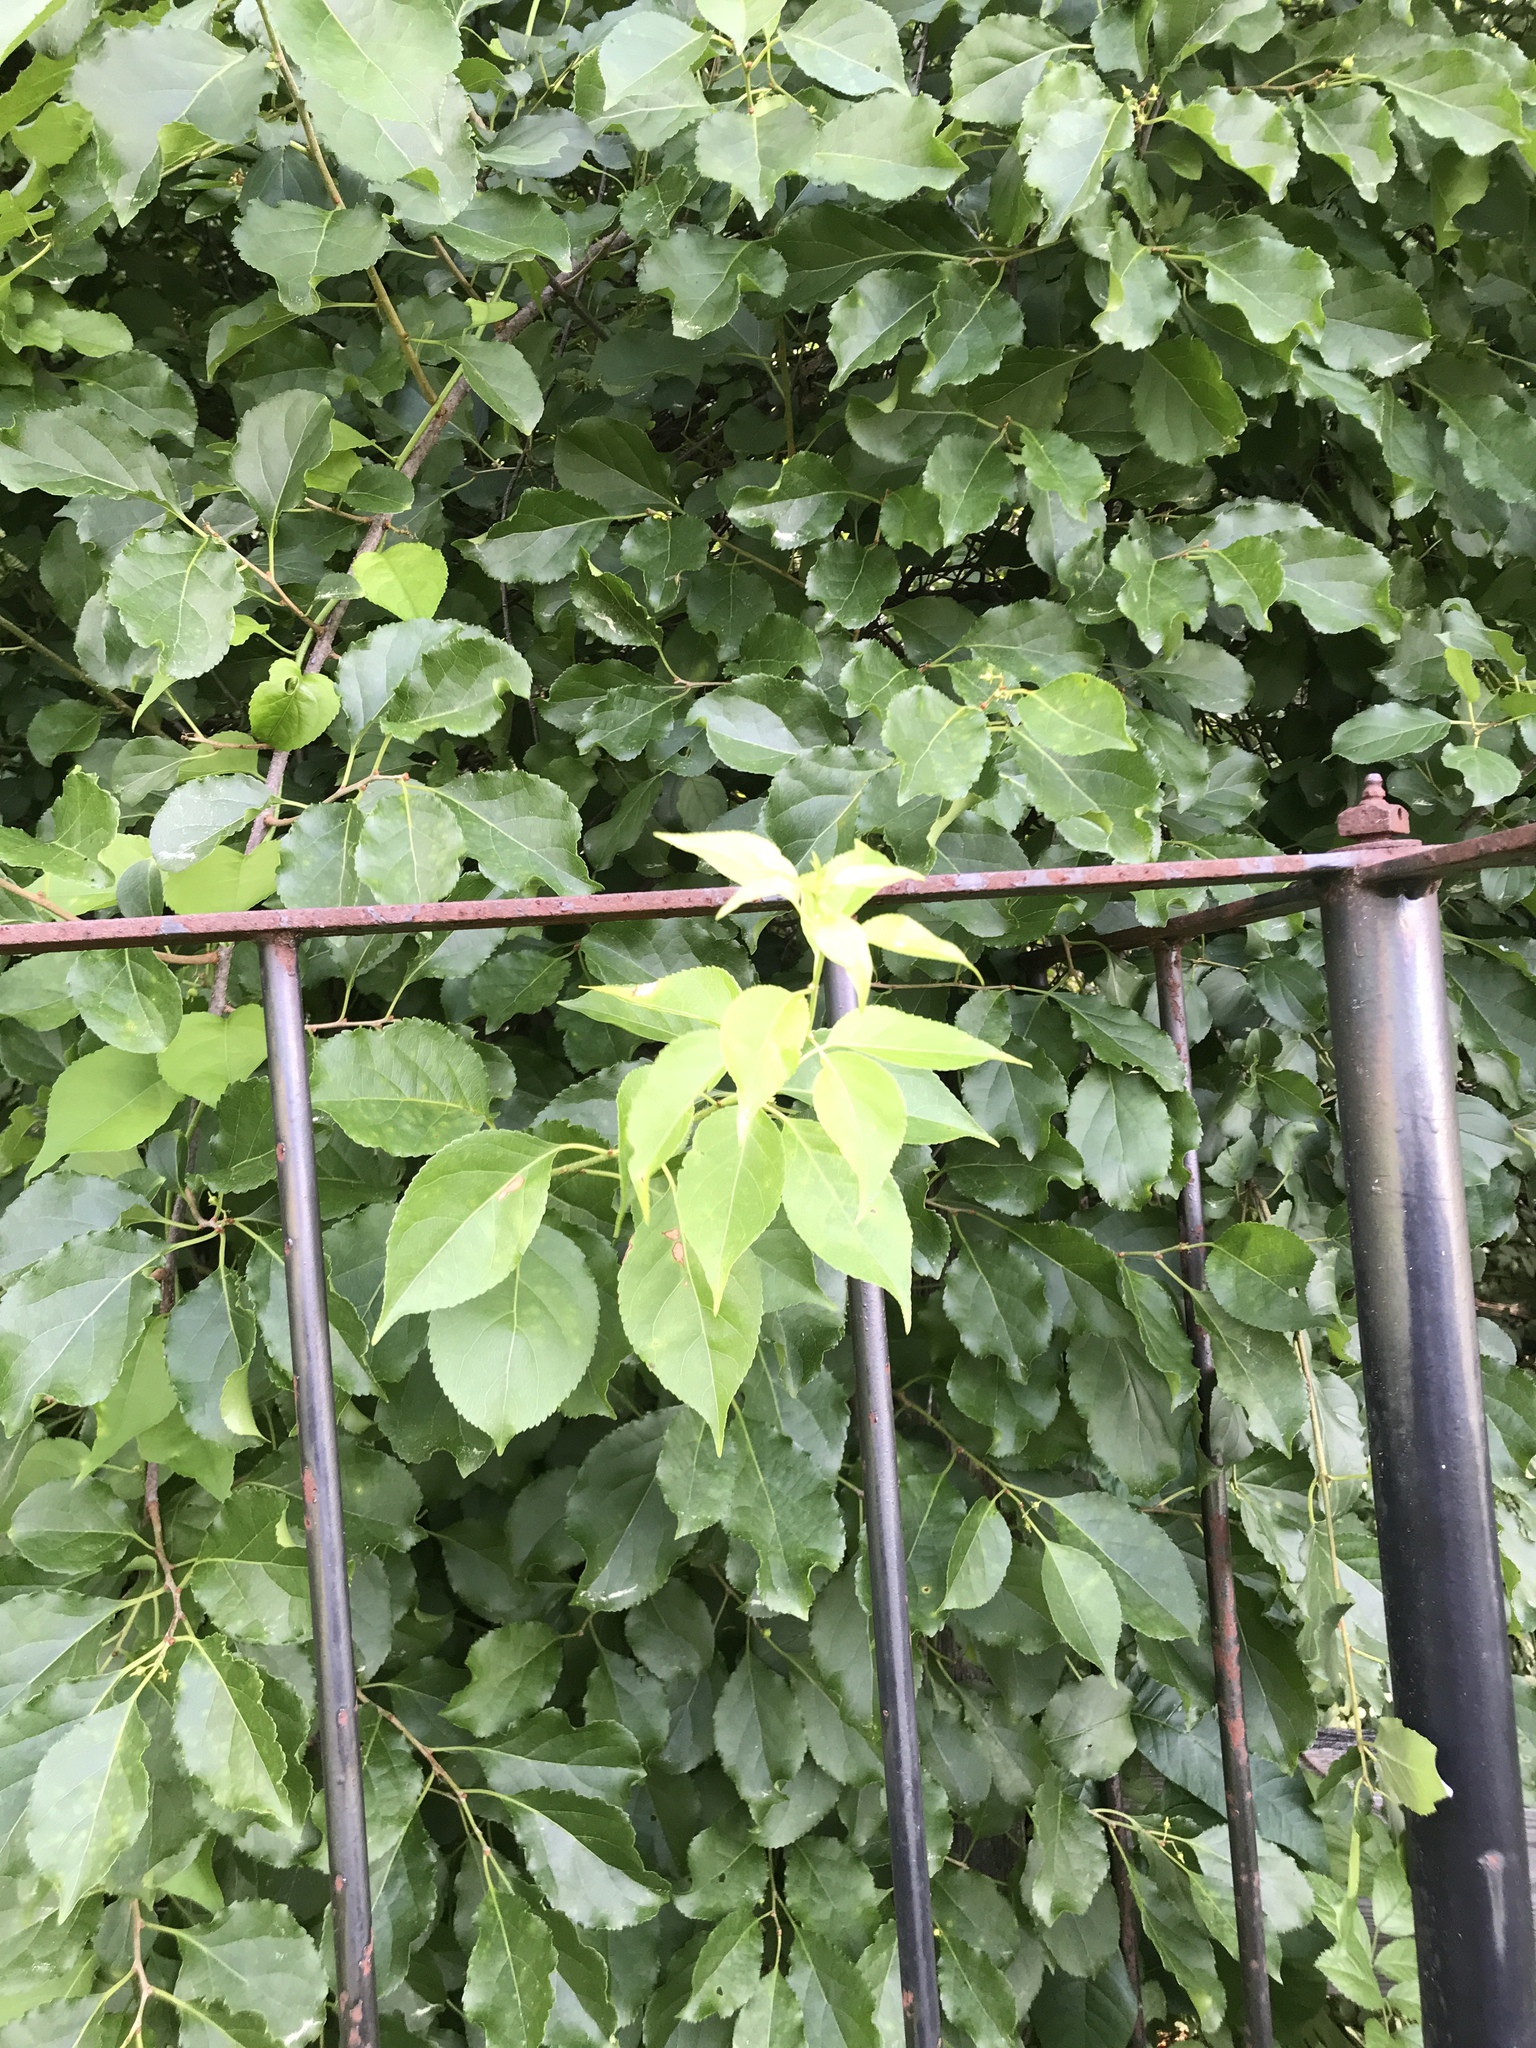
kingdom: Plantae
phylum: Tracheophyta
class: Magnoliopsida
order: Celastrales
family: Celastraceae
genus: Celastrus
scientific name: Celastrus orbiculatus
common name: Oriental bittersweet
